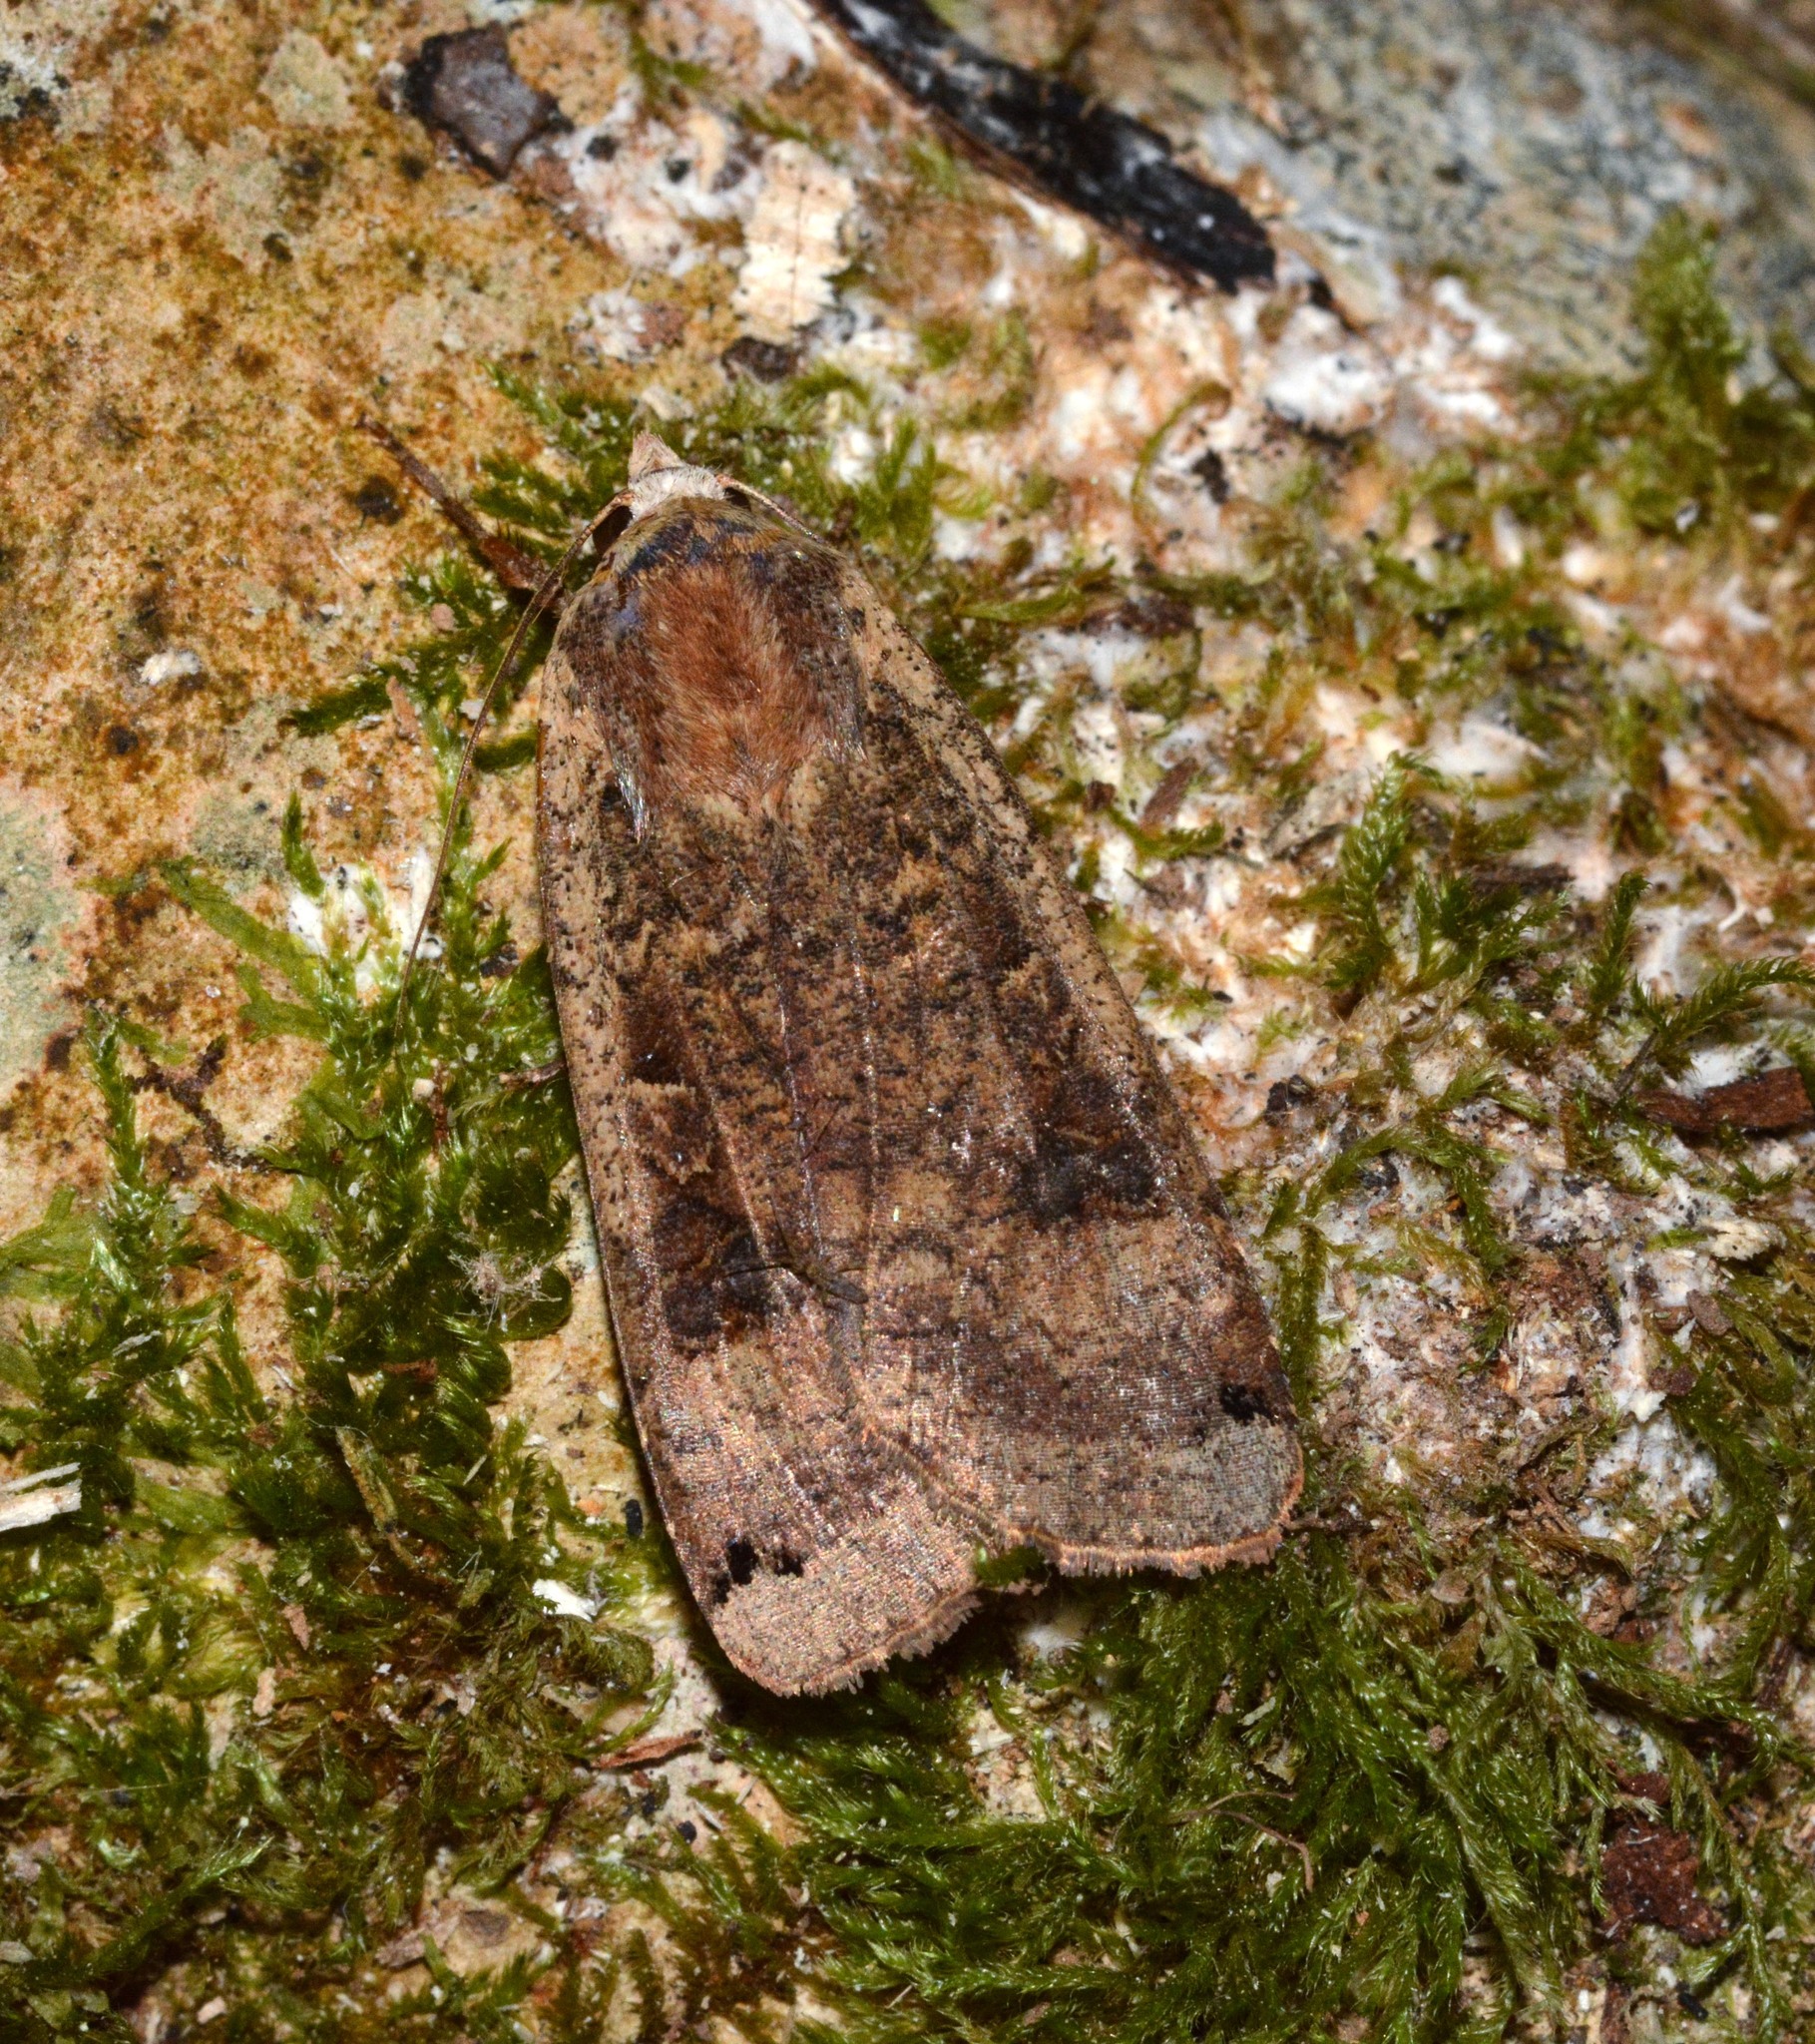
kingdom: Animalia
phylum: Arthropoda
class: Insecta
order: Lepidoptera
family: Noctuidae
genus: Noctua
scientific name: Noctua pronuba
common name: Large yellow underwing
